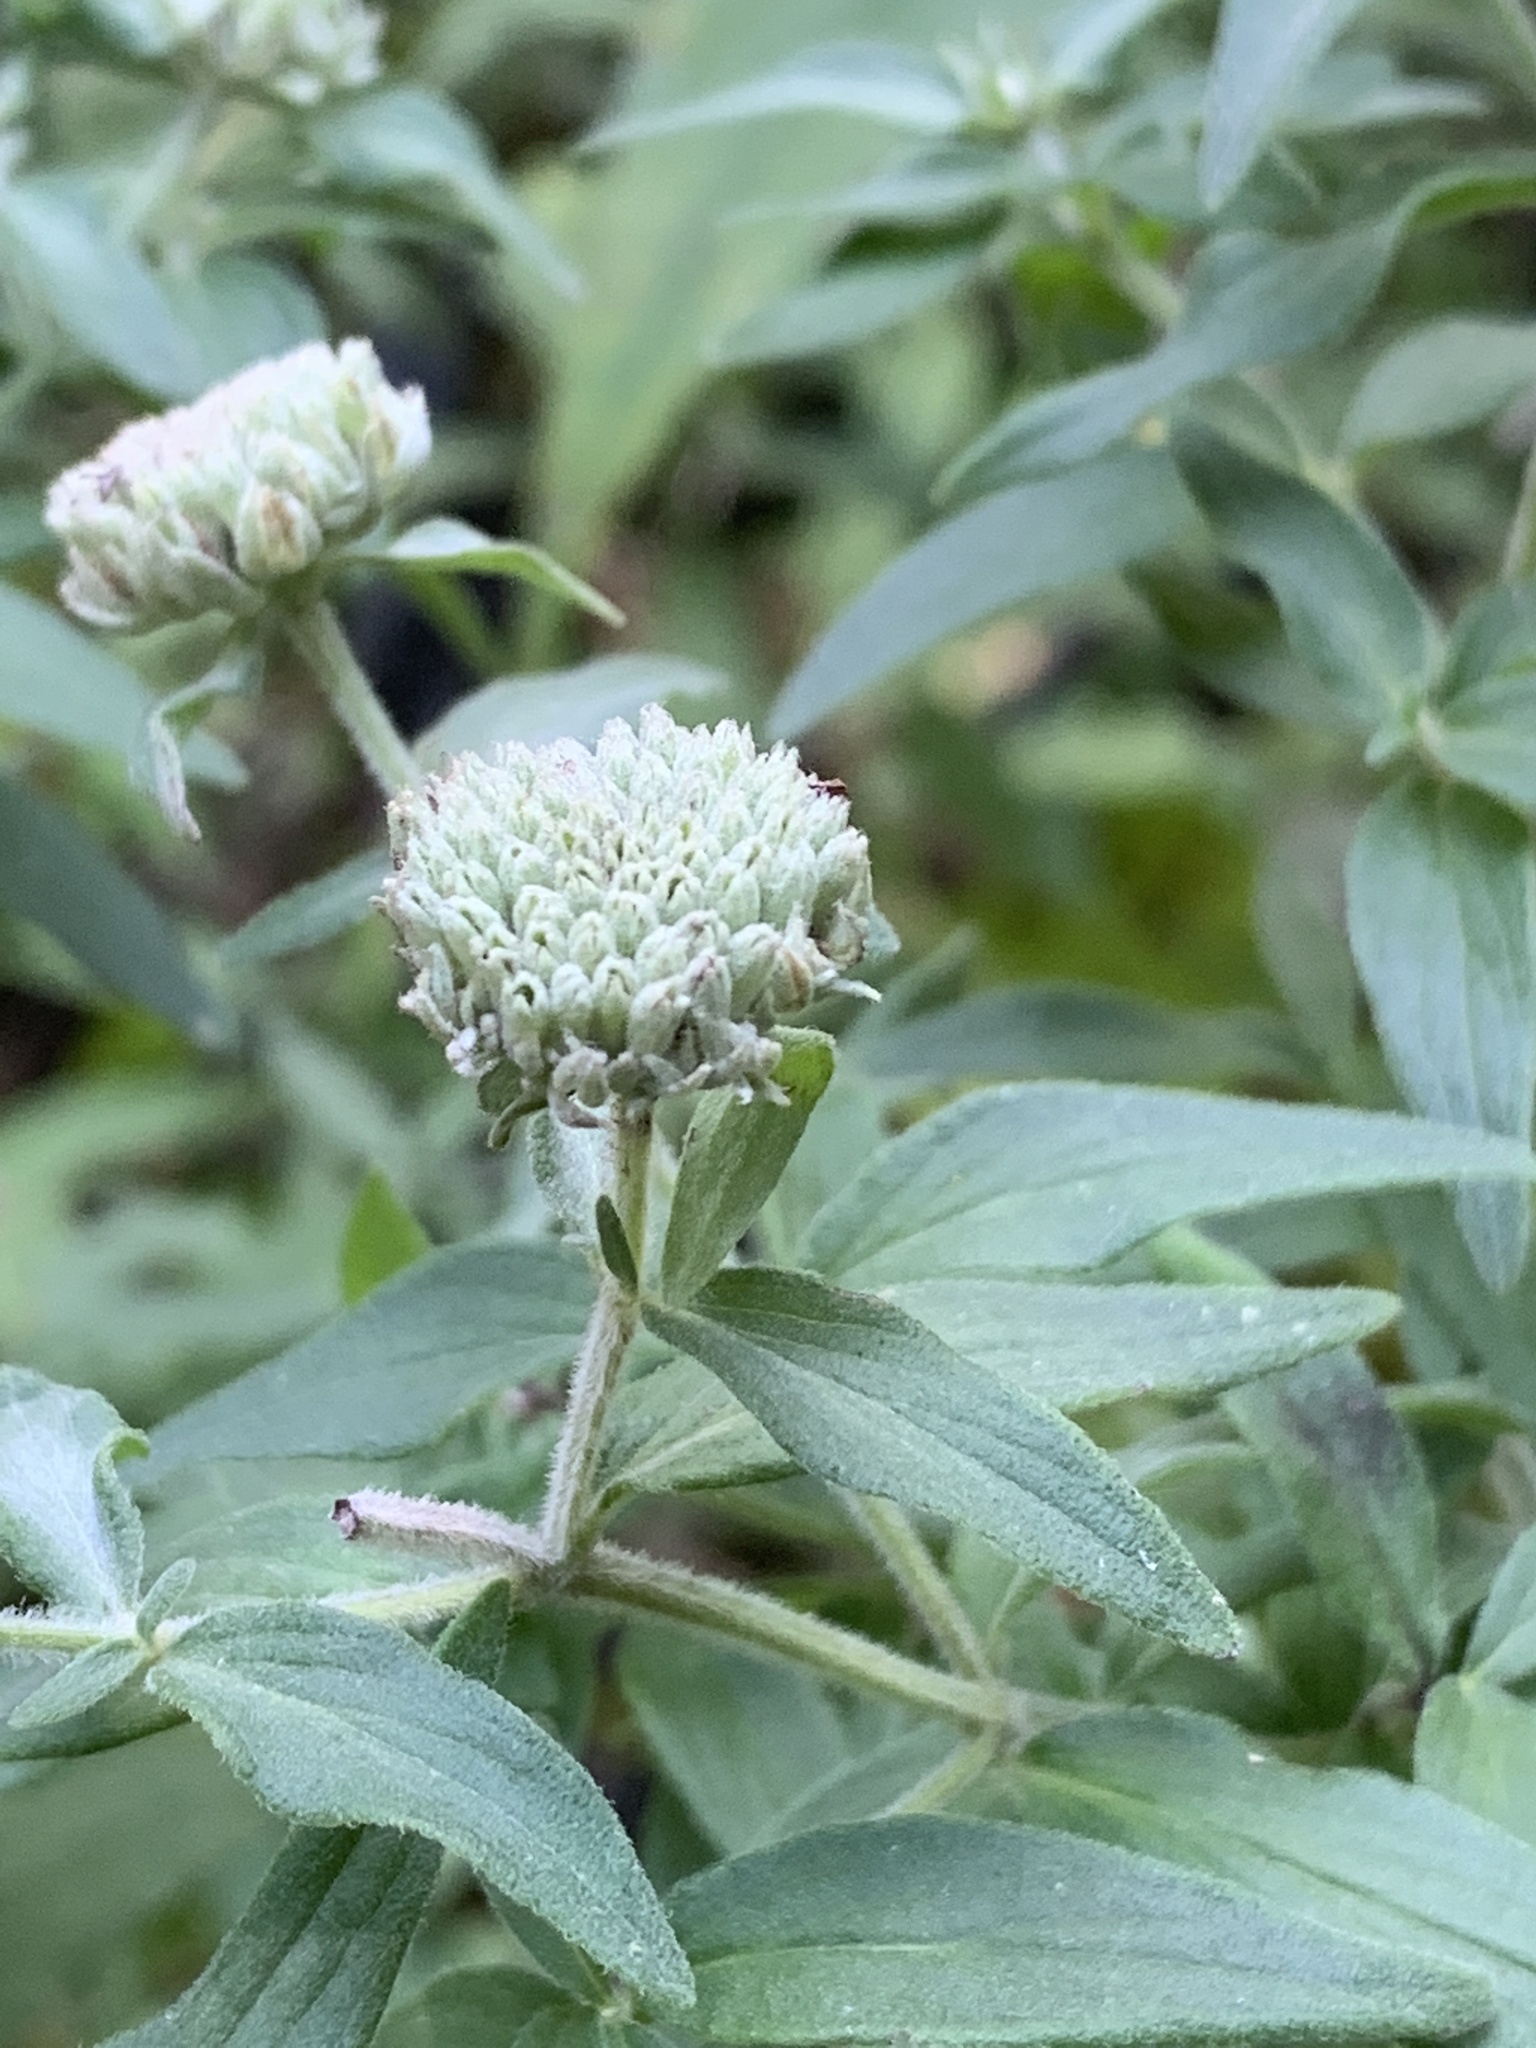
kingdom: Plantae
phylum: Tracheophyta
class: Magnoliopsida
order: Lamiales
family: Lamiaceae
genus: Pycnanthemum
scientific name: Pycnanthemum verticillatum
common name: Whorled mountain-mint
